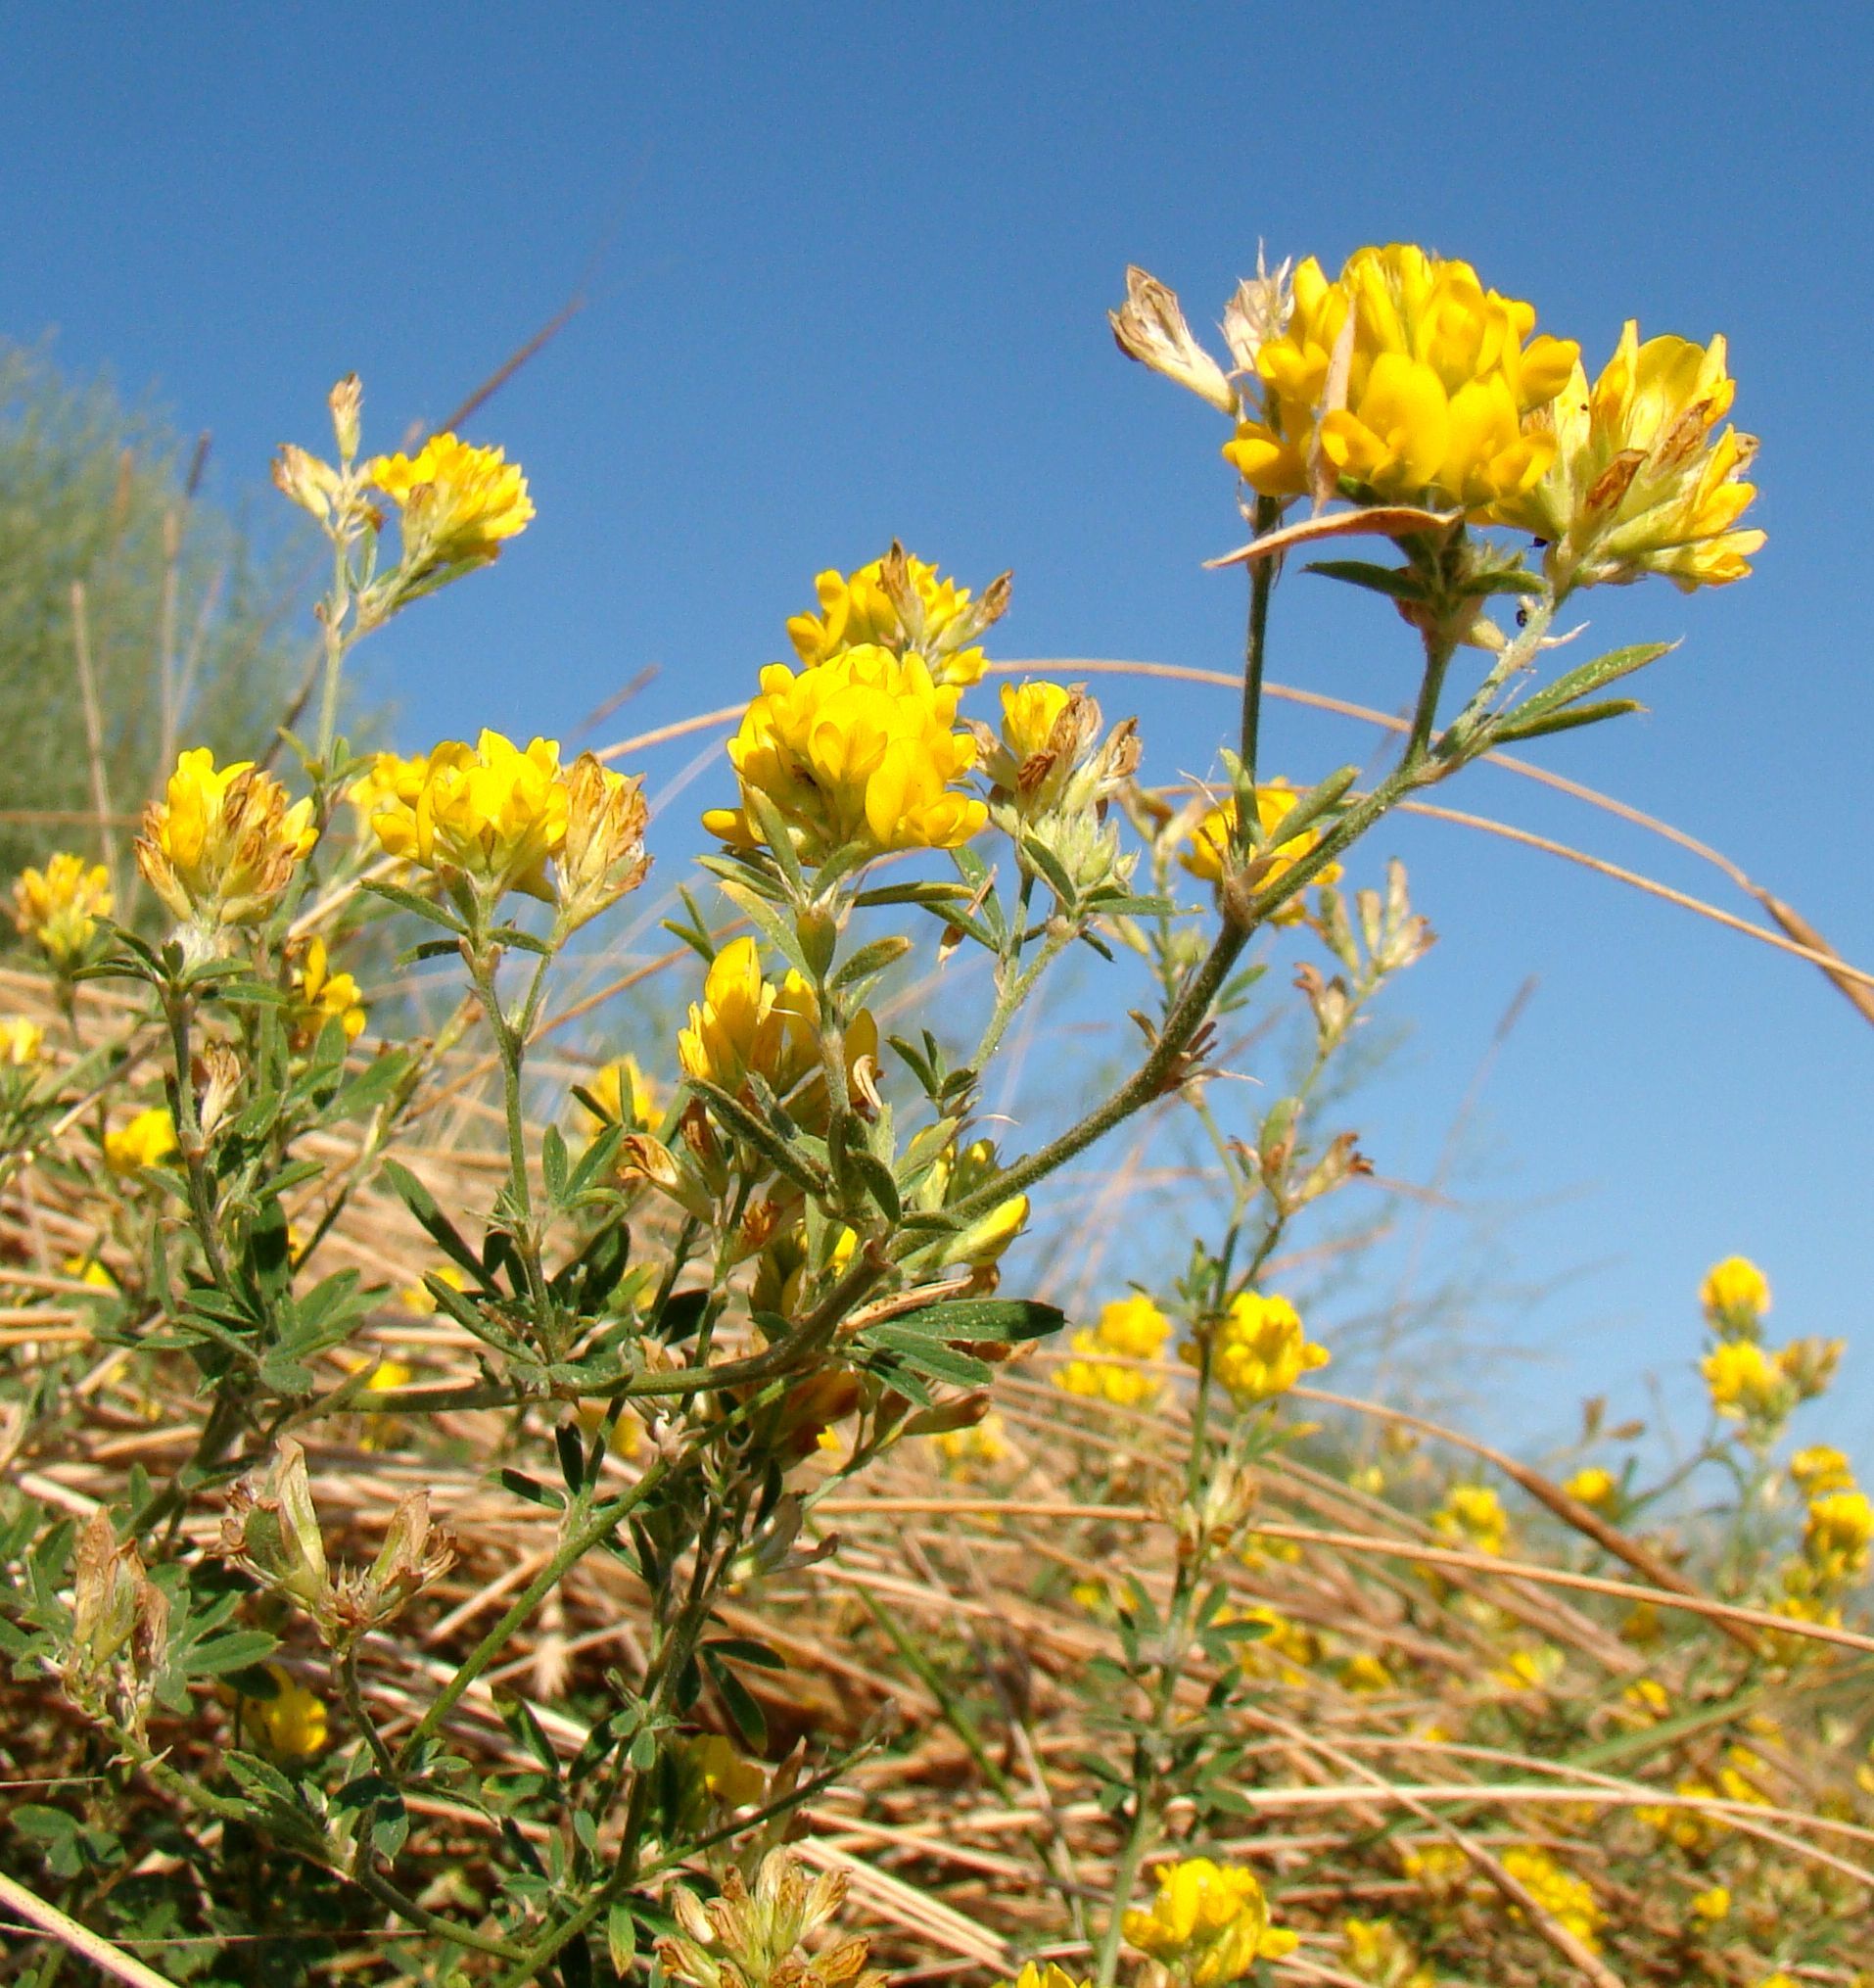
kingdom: Plantae
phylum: Tracheophyta
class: Magnoliopsida
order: Fabales
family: Fabaceae
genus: Medicago
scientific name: Medicago falcata
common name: Sickle medick
